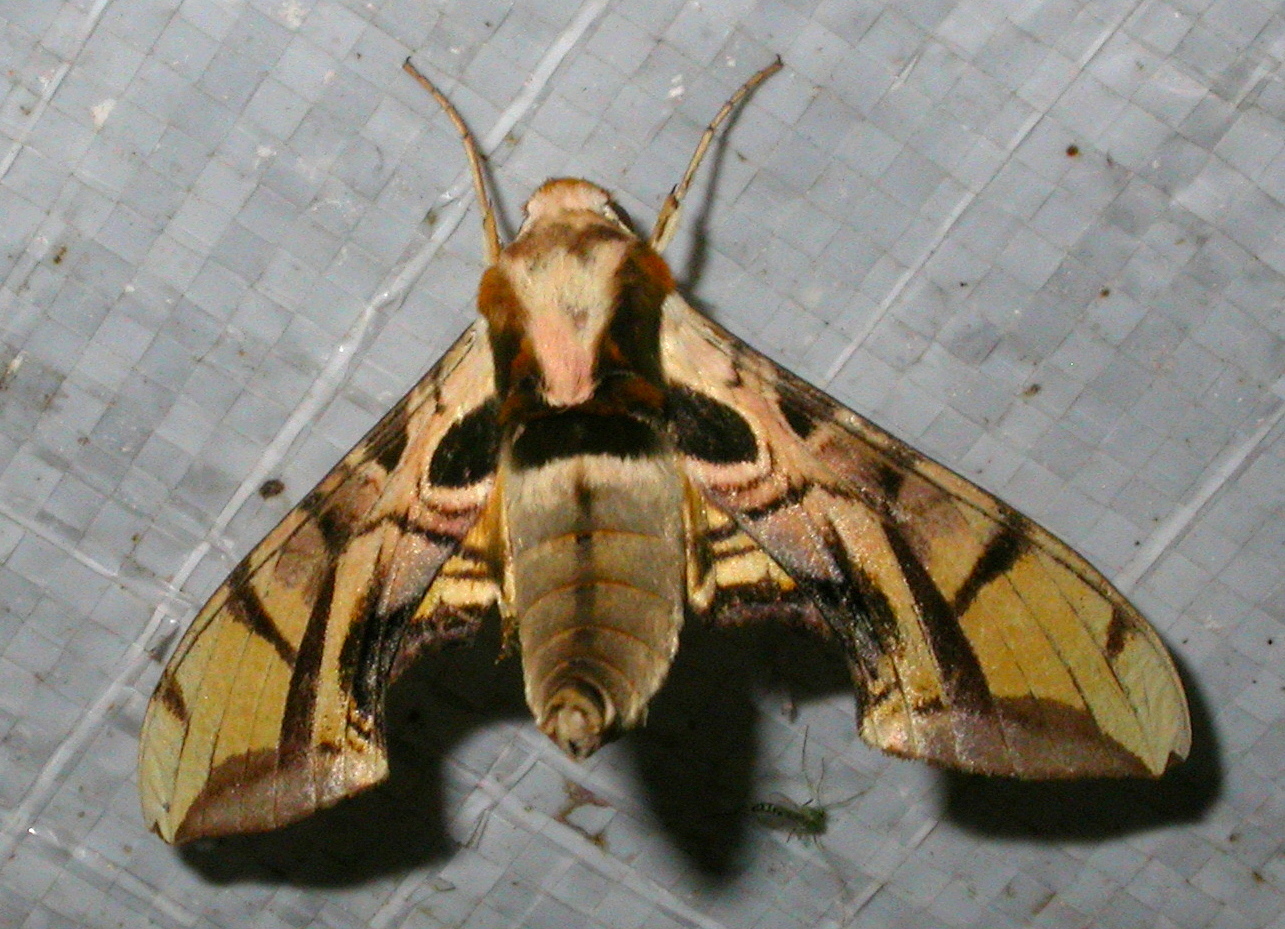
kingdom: Animalia
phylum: Arthropoda
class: Insecta
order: Lepidoptera
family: Sphingidae
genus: Batocnema
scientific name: Batocnema coquerelii
